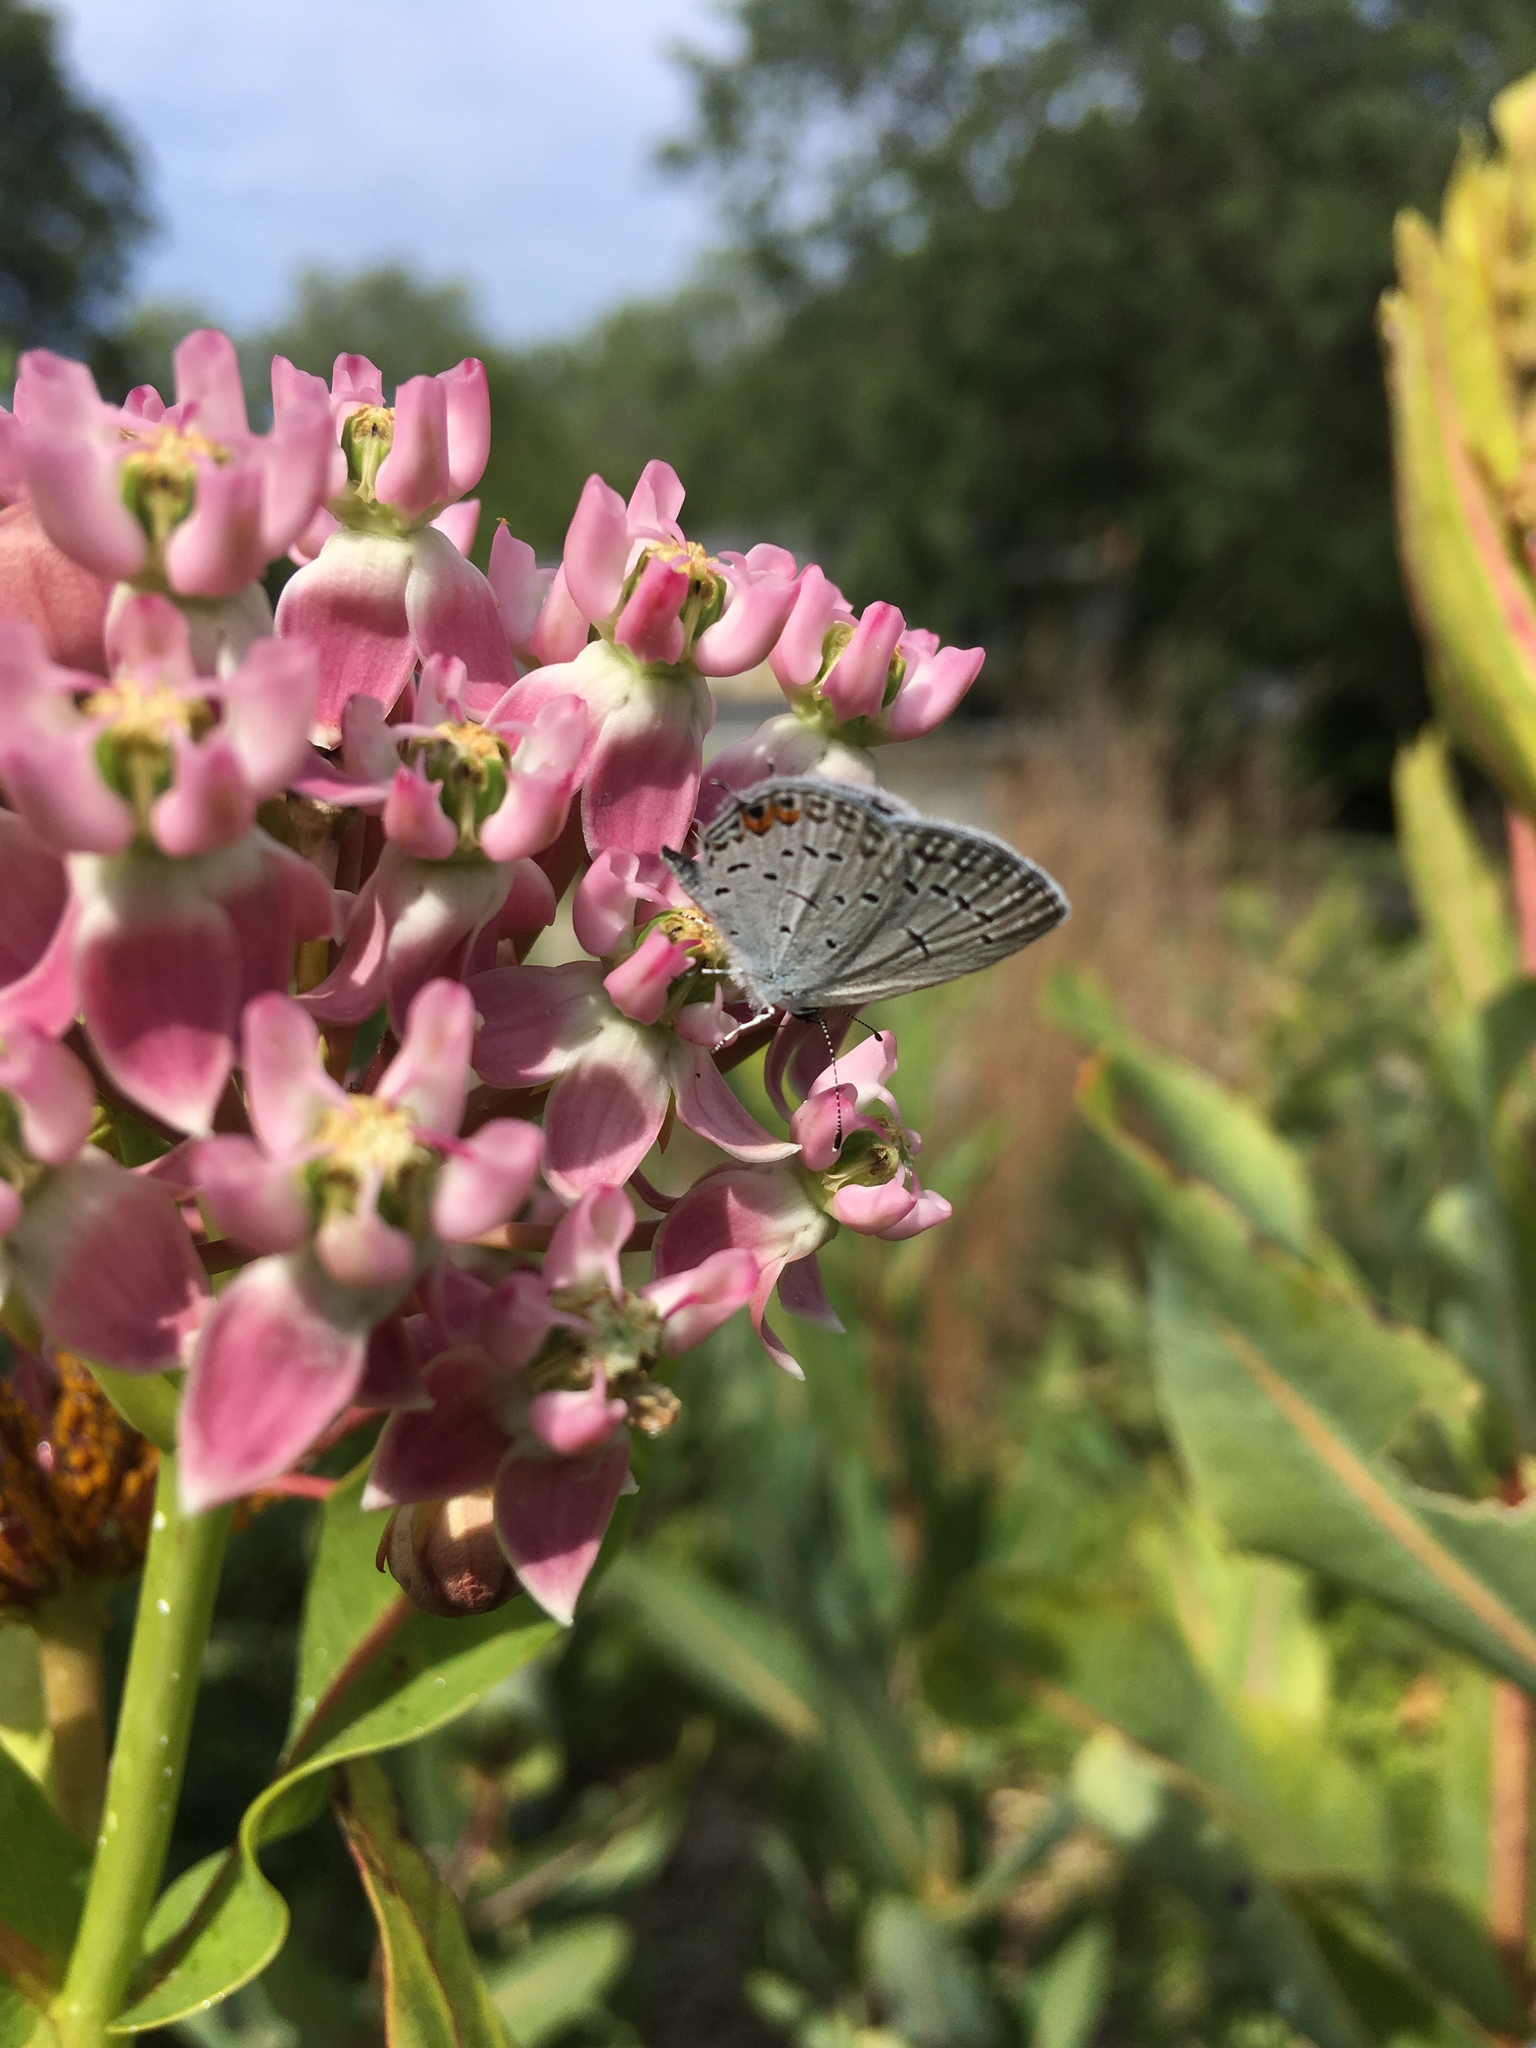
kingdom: Animalia
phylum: Arthropoda
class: Insecta
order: Lepidoptera
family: Lycaenidae
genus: Elkalyce
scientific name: Elkalyce comyntas
